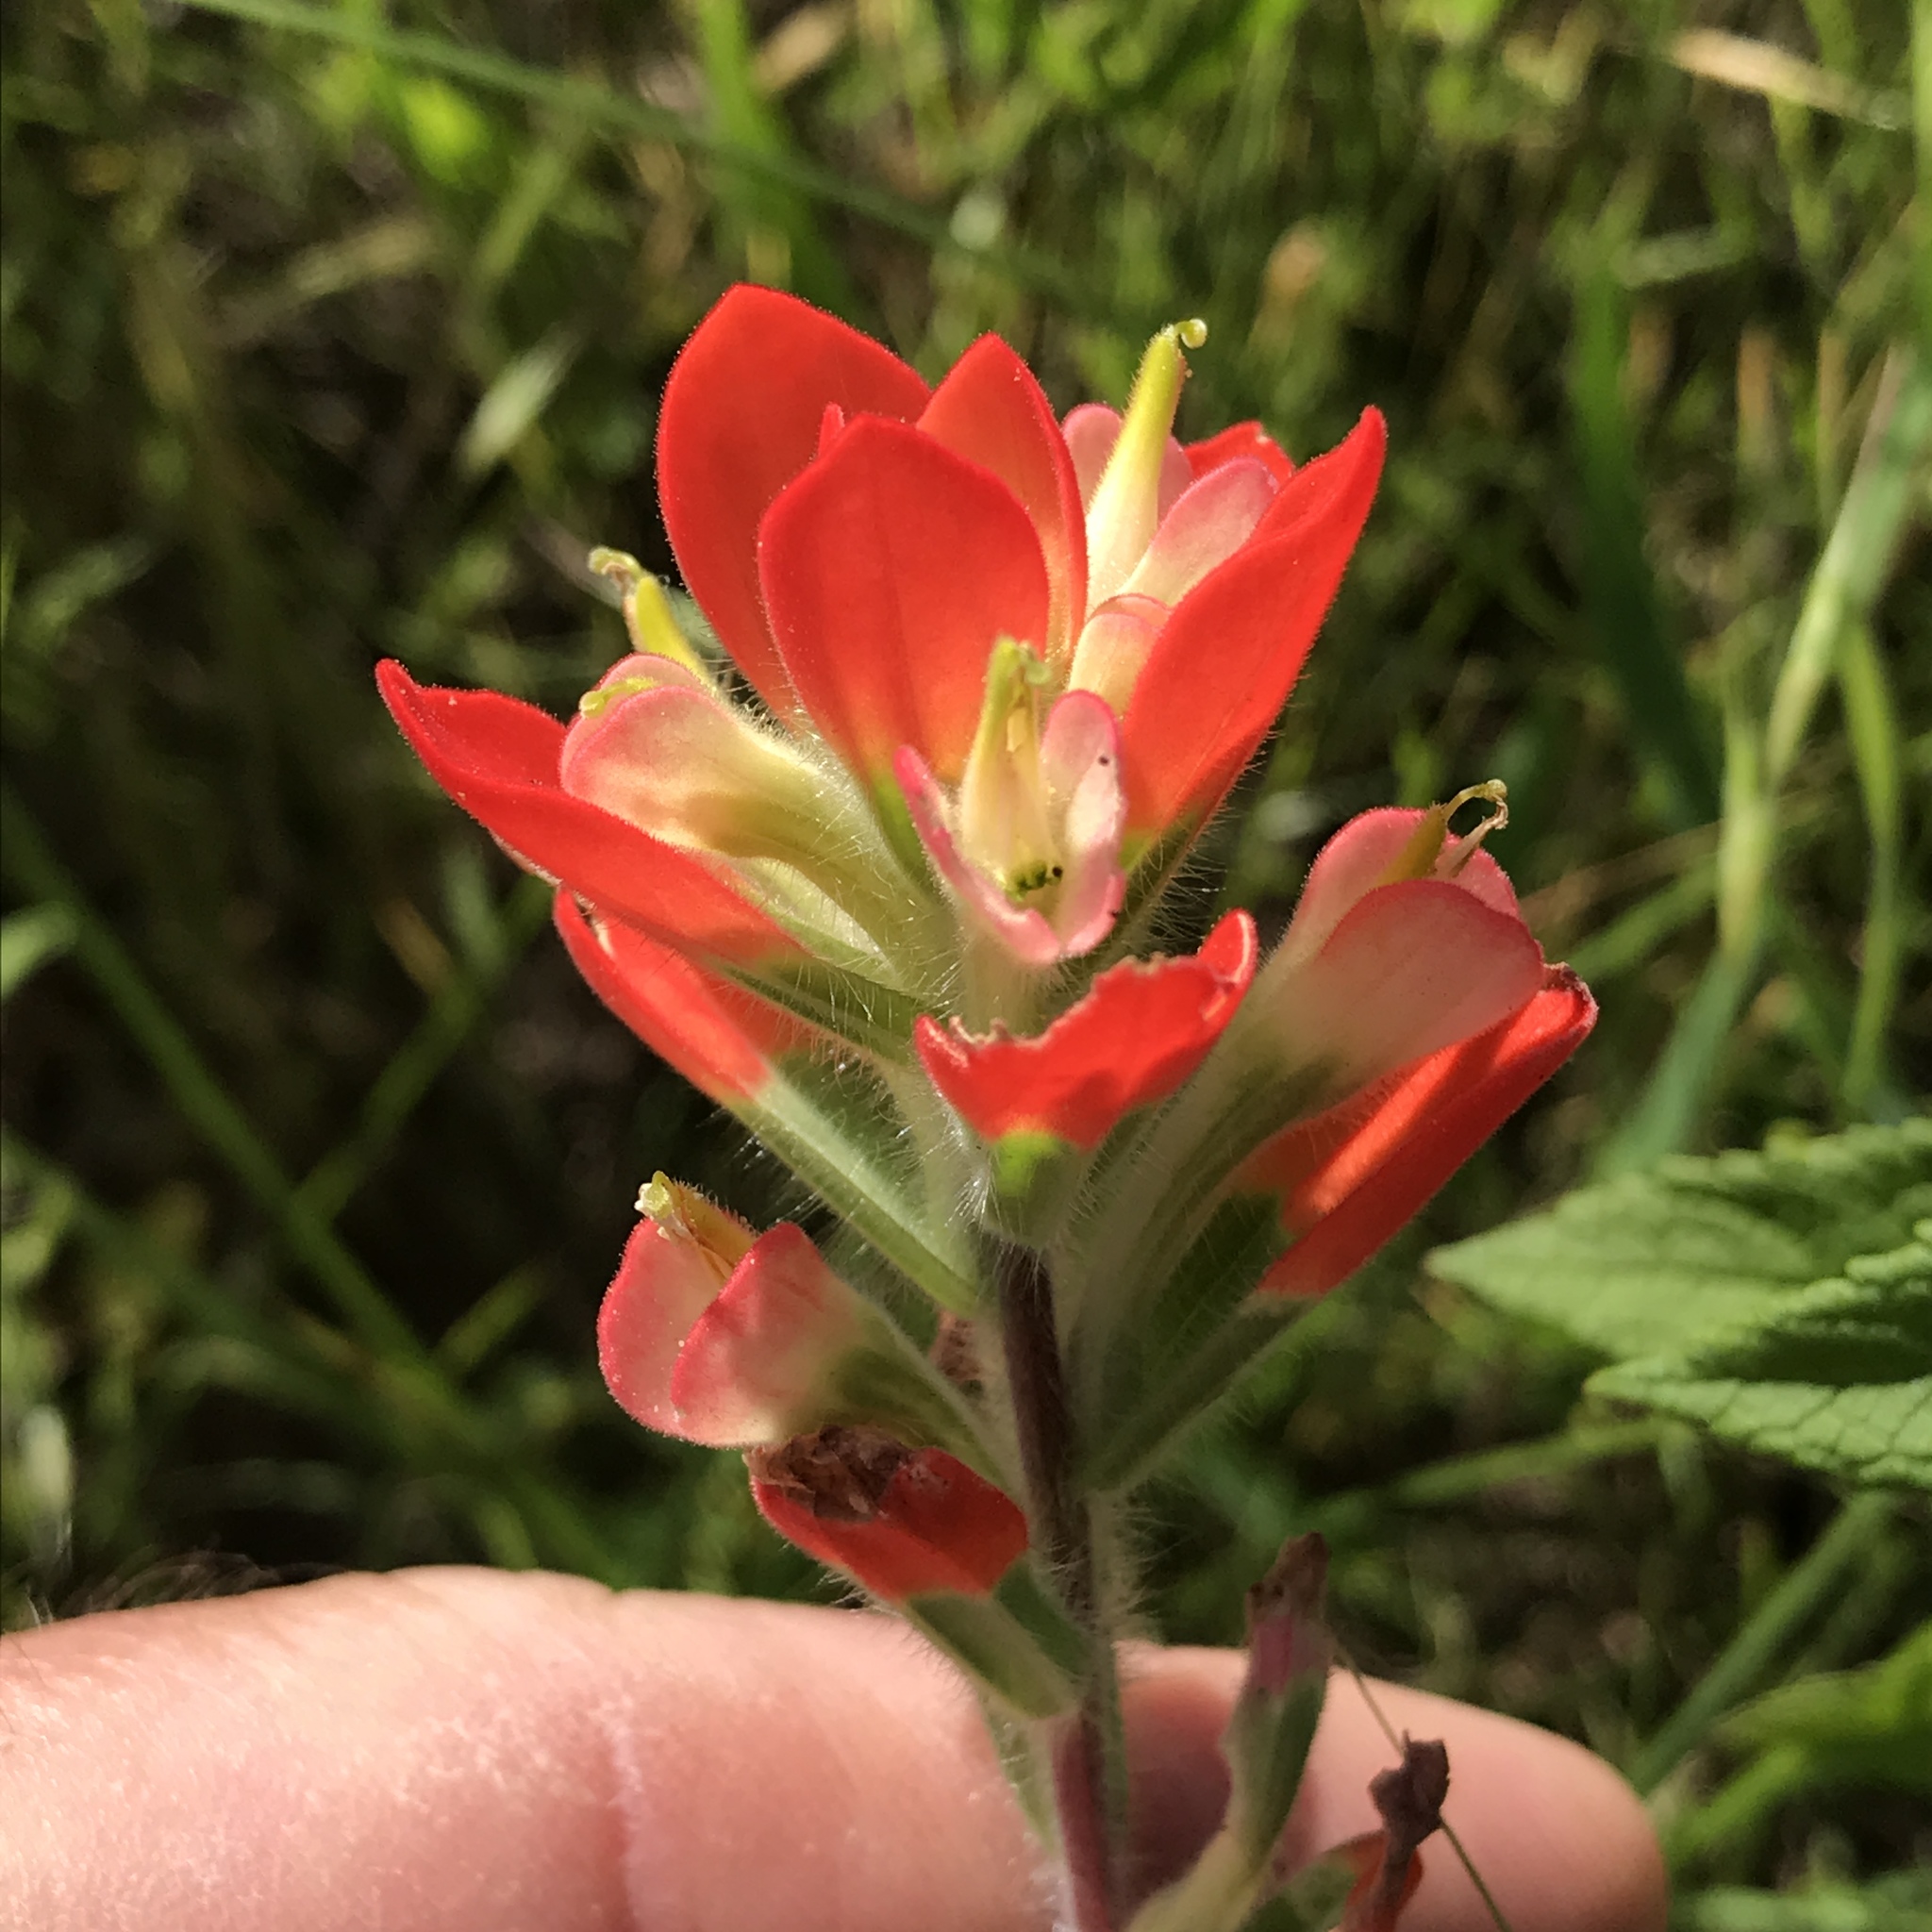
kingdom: Plantae
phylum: Tracheophyta
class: Magnoliopsida
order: Lamiales
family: Orobanchaceae
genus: Castilleja
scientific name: Castilleja indivisa
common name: Texas paintbrush
